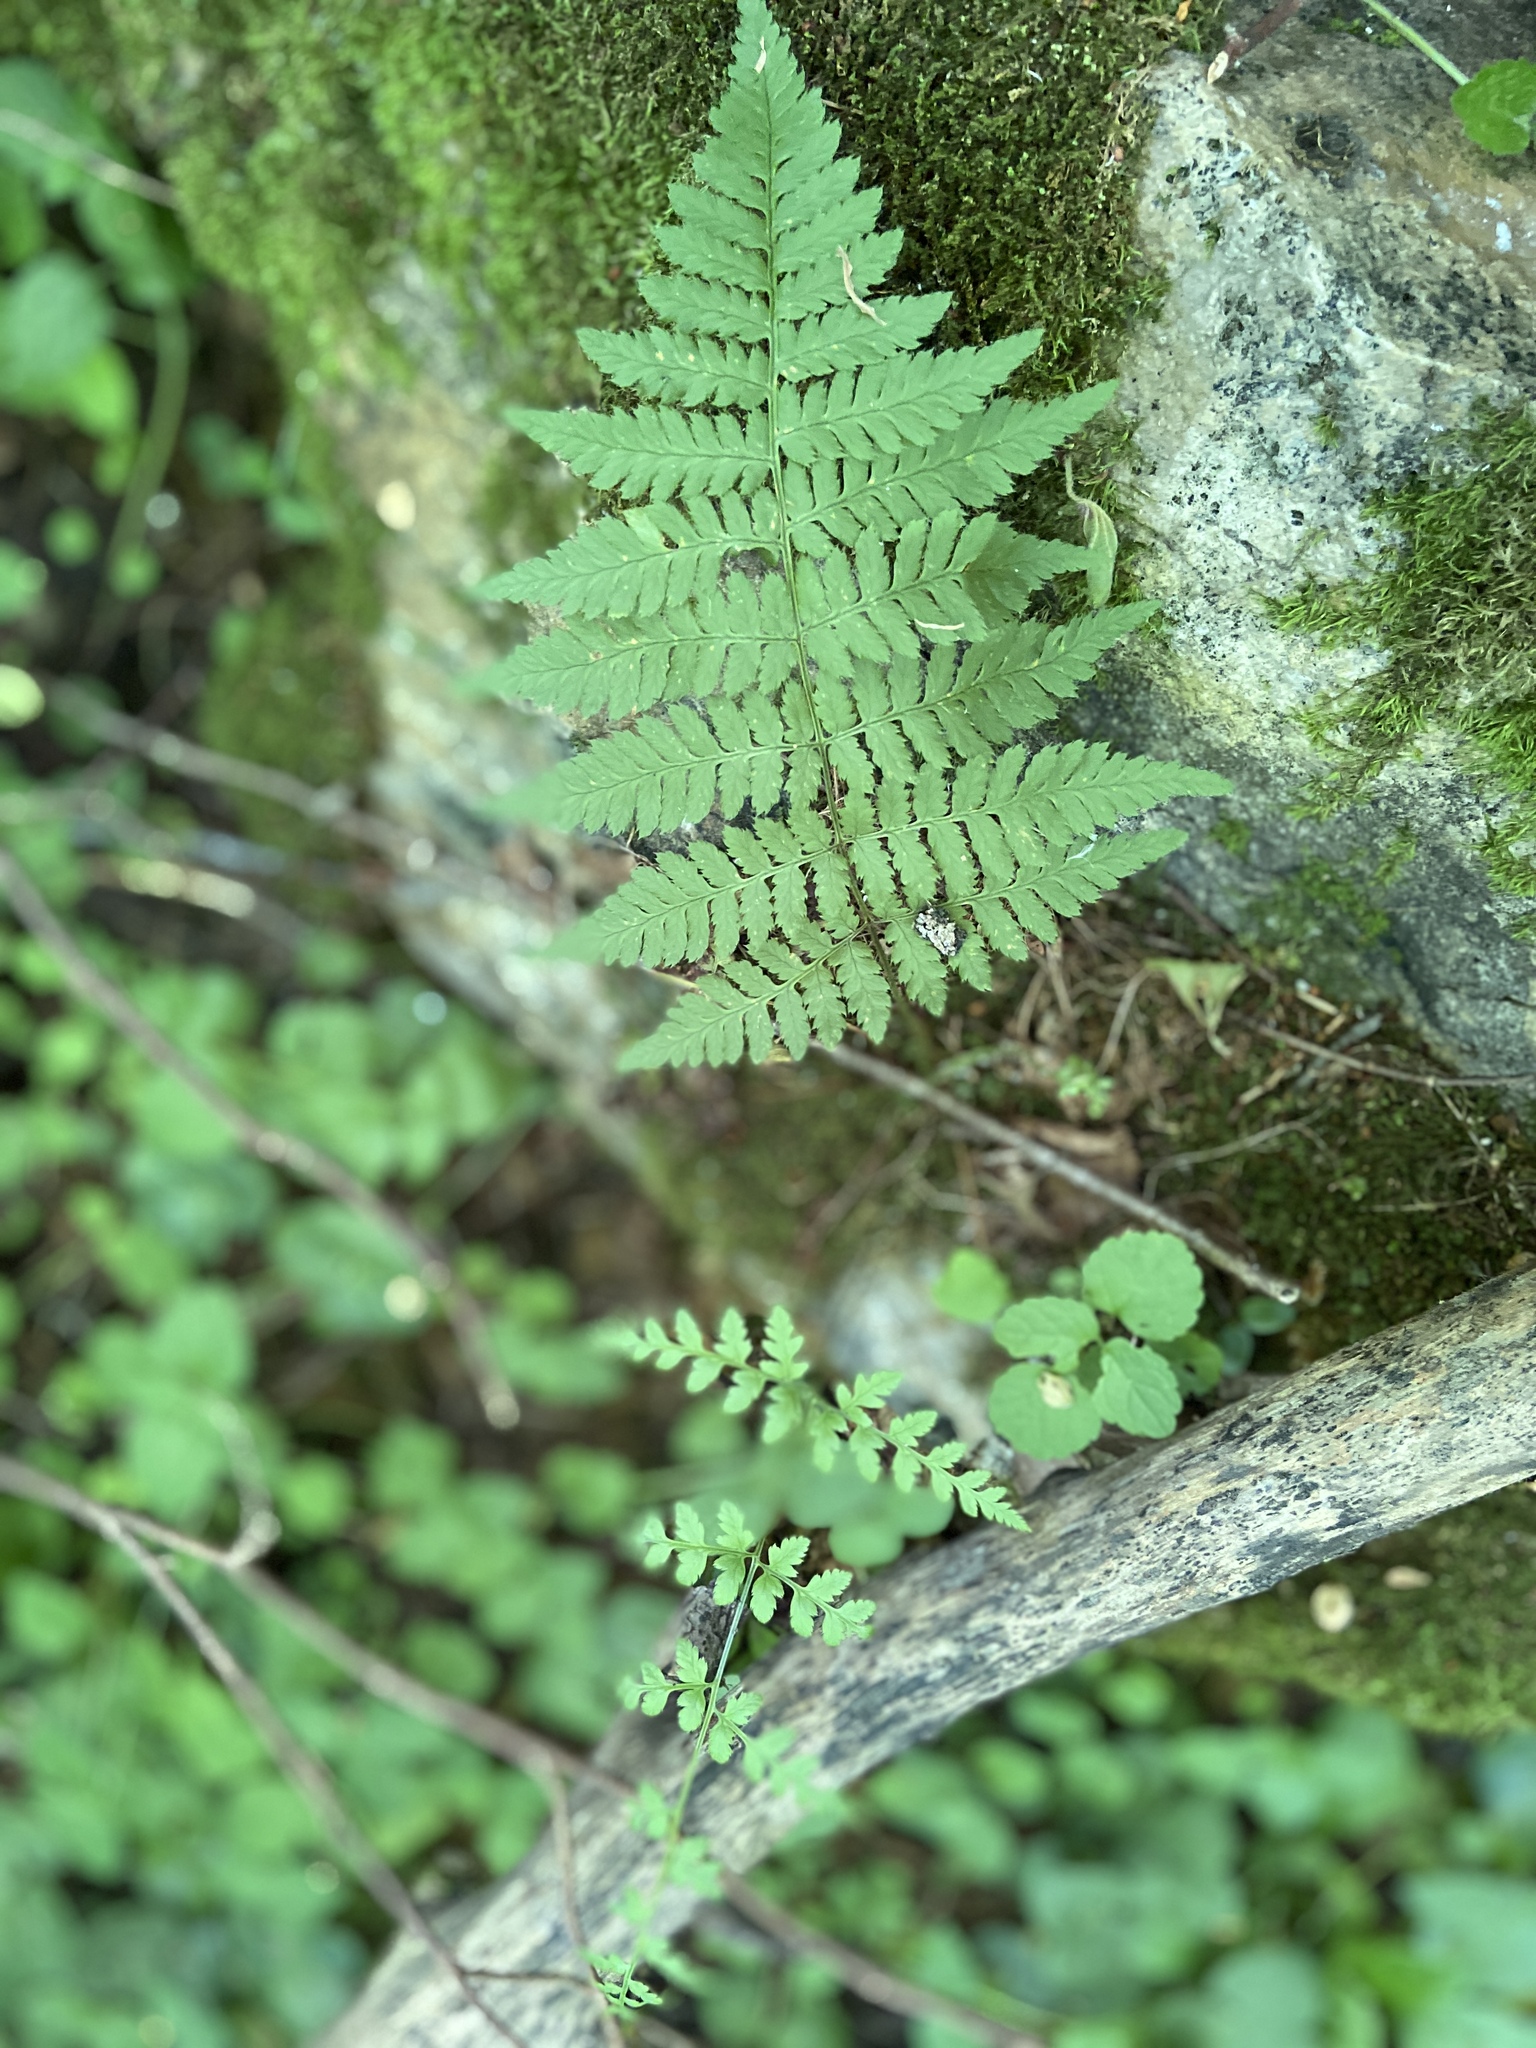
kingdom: Plantae
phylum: Tracheophyta
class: Polypodiopsida
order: Polypodiales
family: Dryopteridaceae
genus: Dryopteris
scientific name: Dryopteris carthusiana
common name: Narrow buckler-fern
